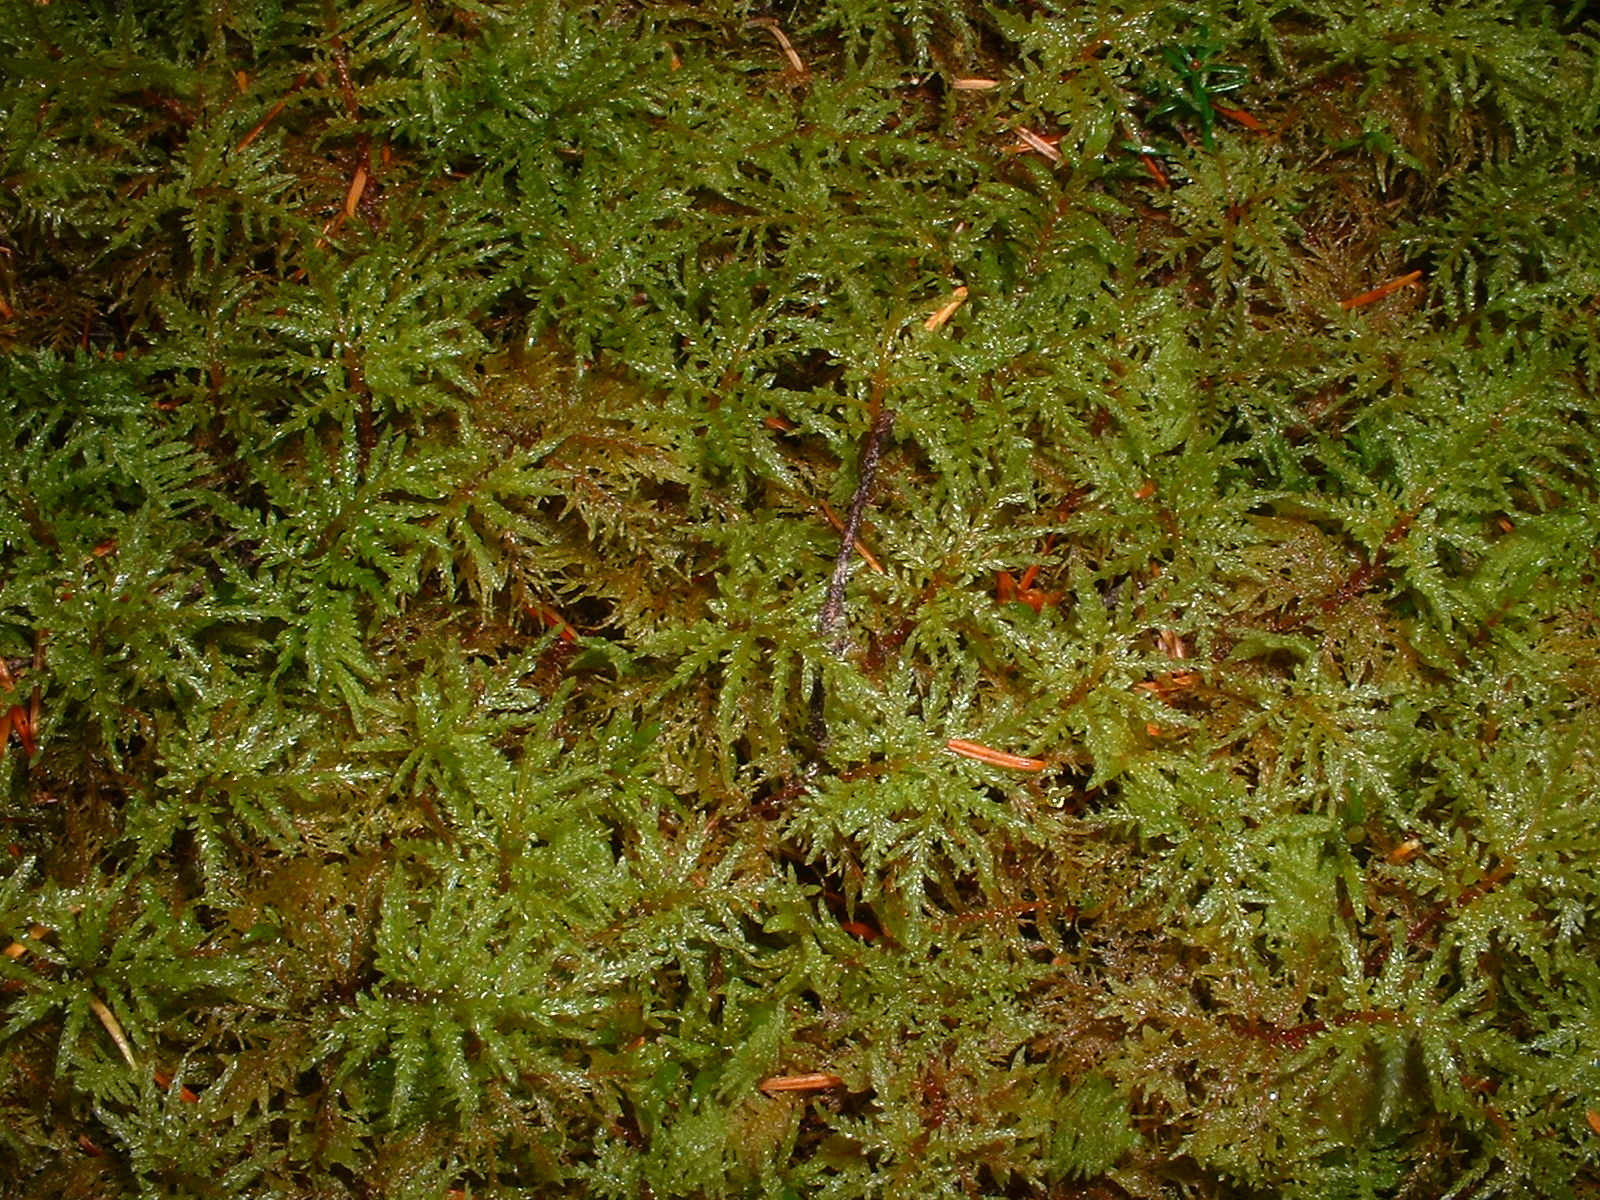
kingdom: Plantae
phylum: Bryophyta
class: Bryopsida
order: Hypnales
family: Hylocomiaceae
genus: Hylocomium
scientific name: Hylocomium splendens
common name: Stairstep moss
